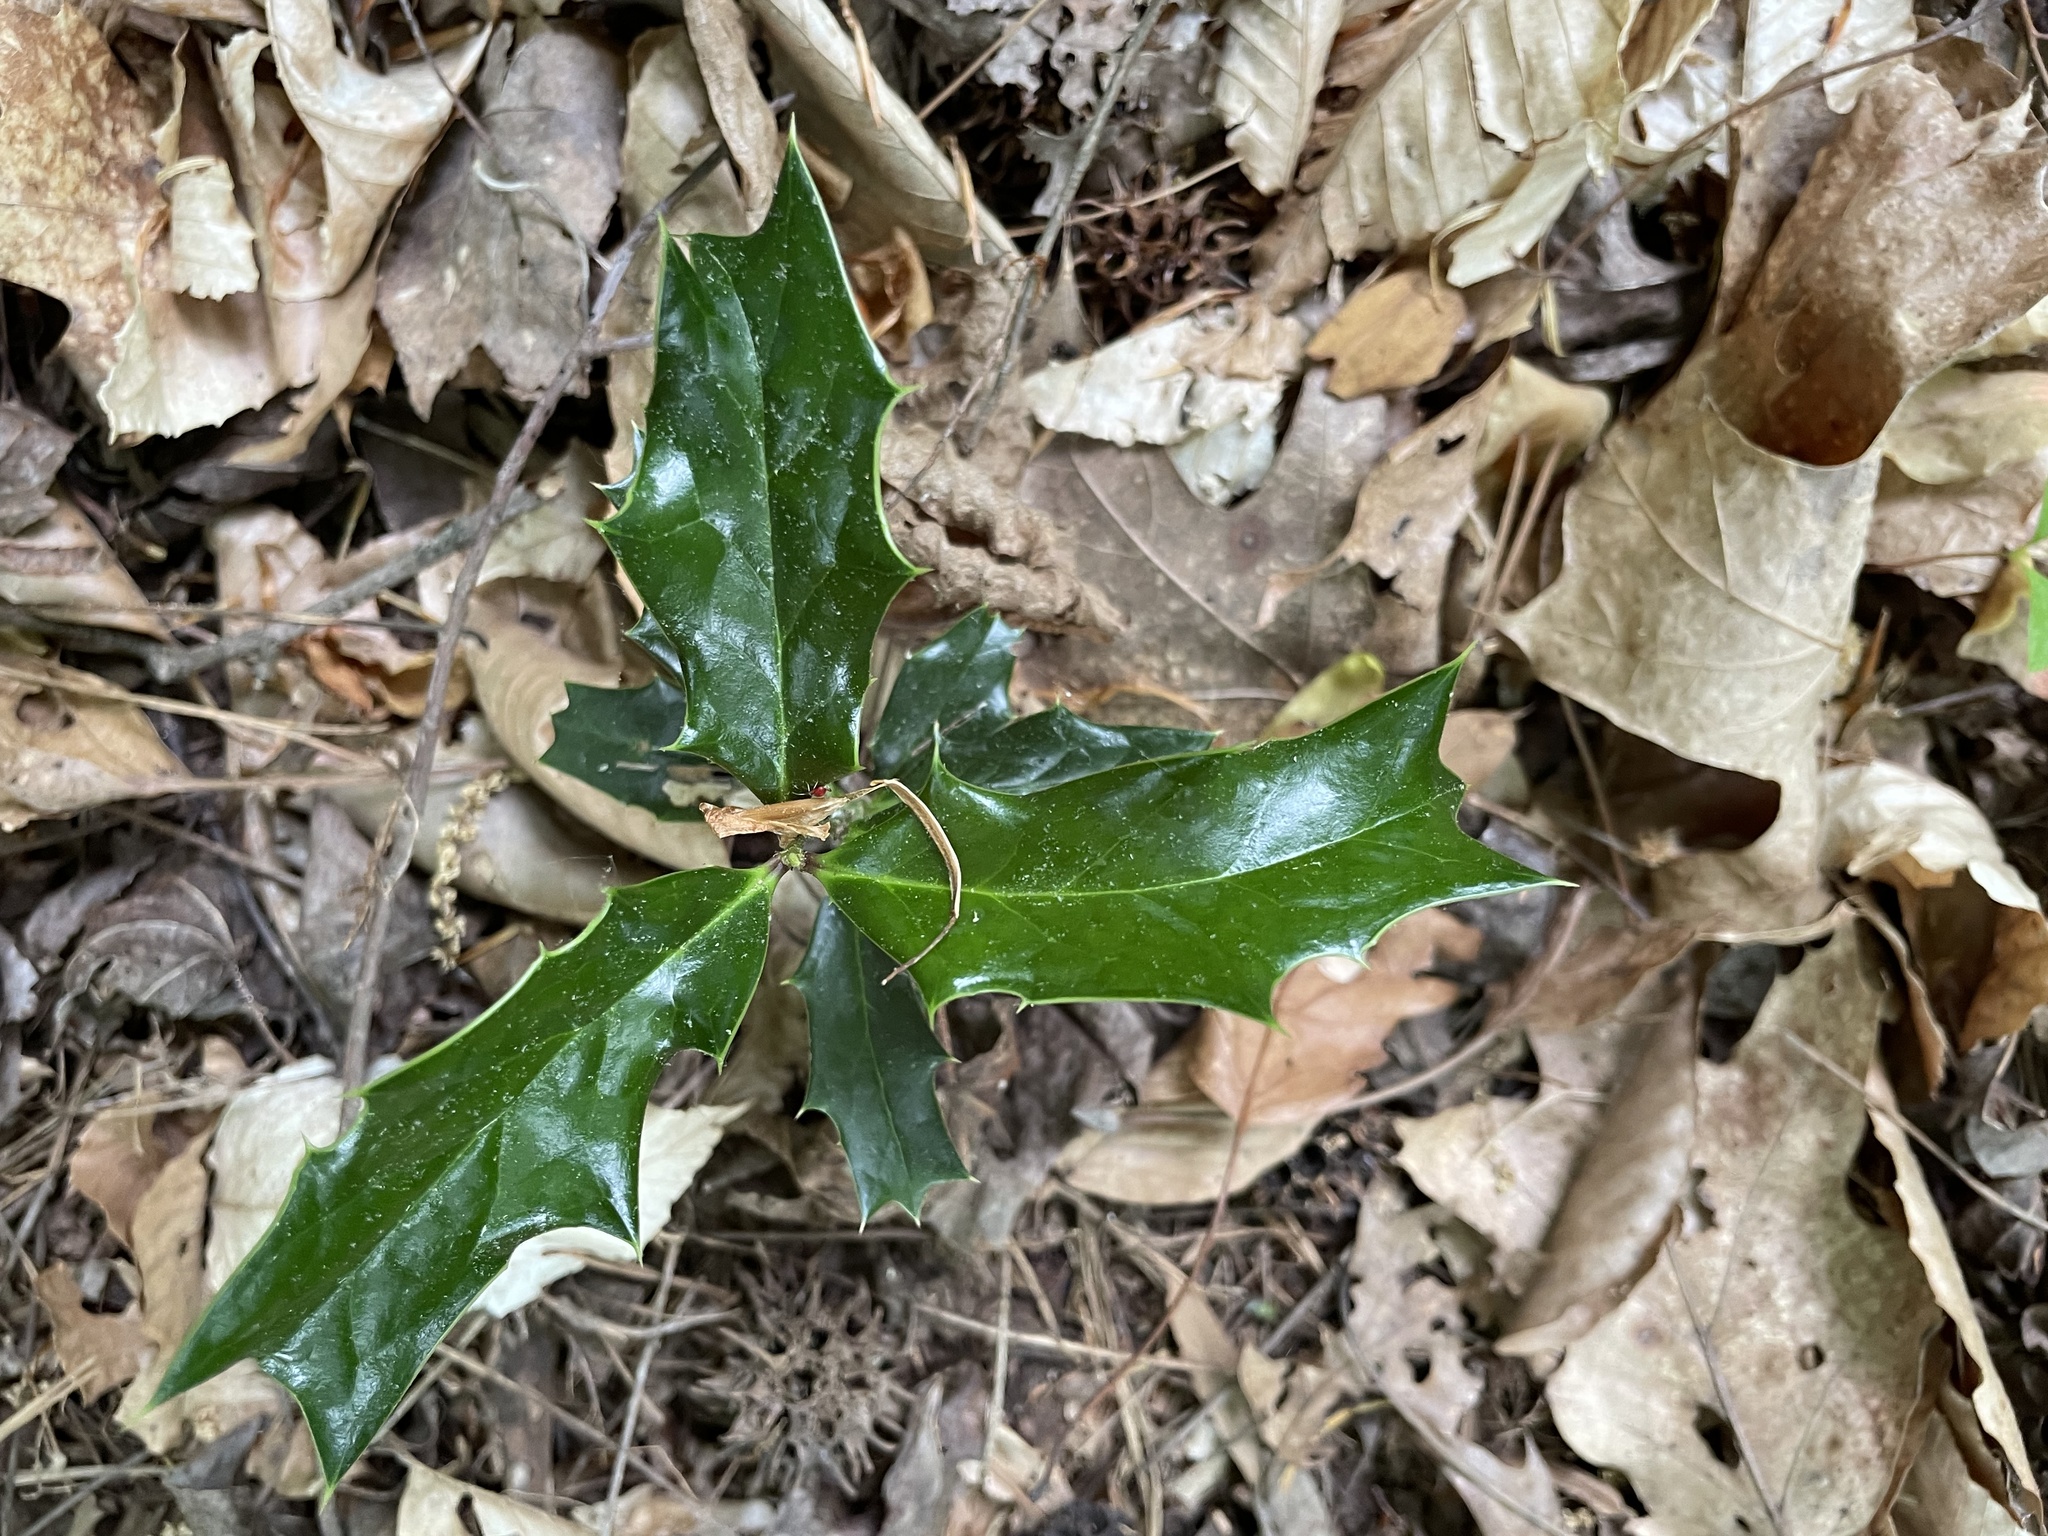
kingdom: Plantae
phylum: Tracheophyta
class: Magnoliopsida
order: Aquifoliales
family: Aquifoliaceae
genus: Ilex
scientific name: Ilex cornuta
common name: Chinese holly
